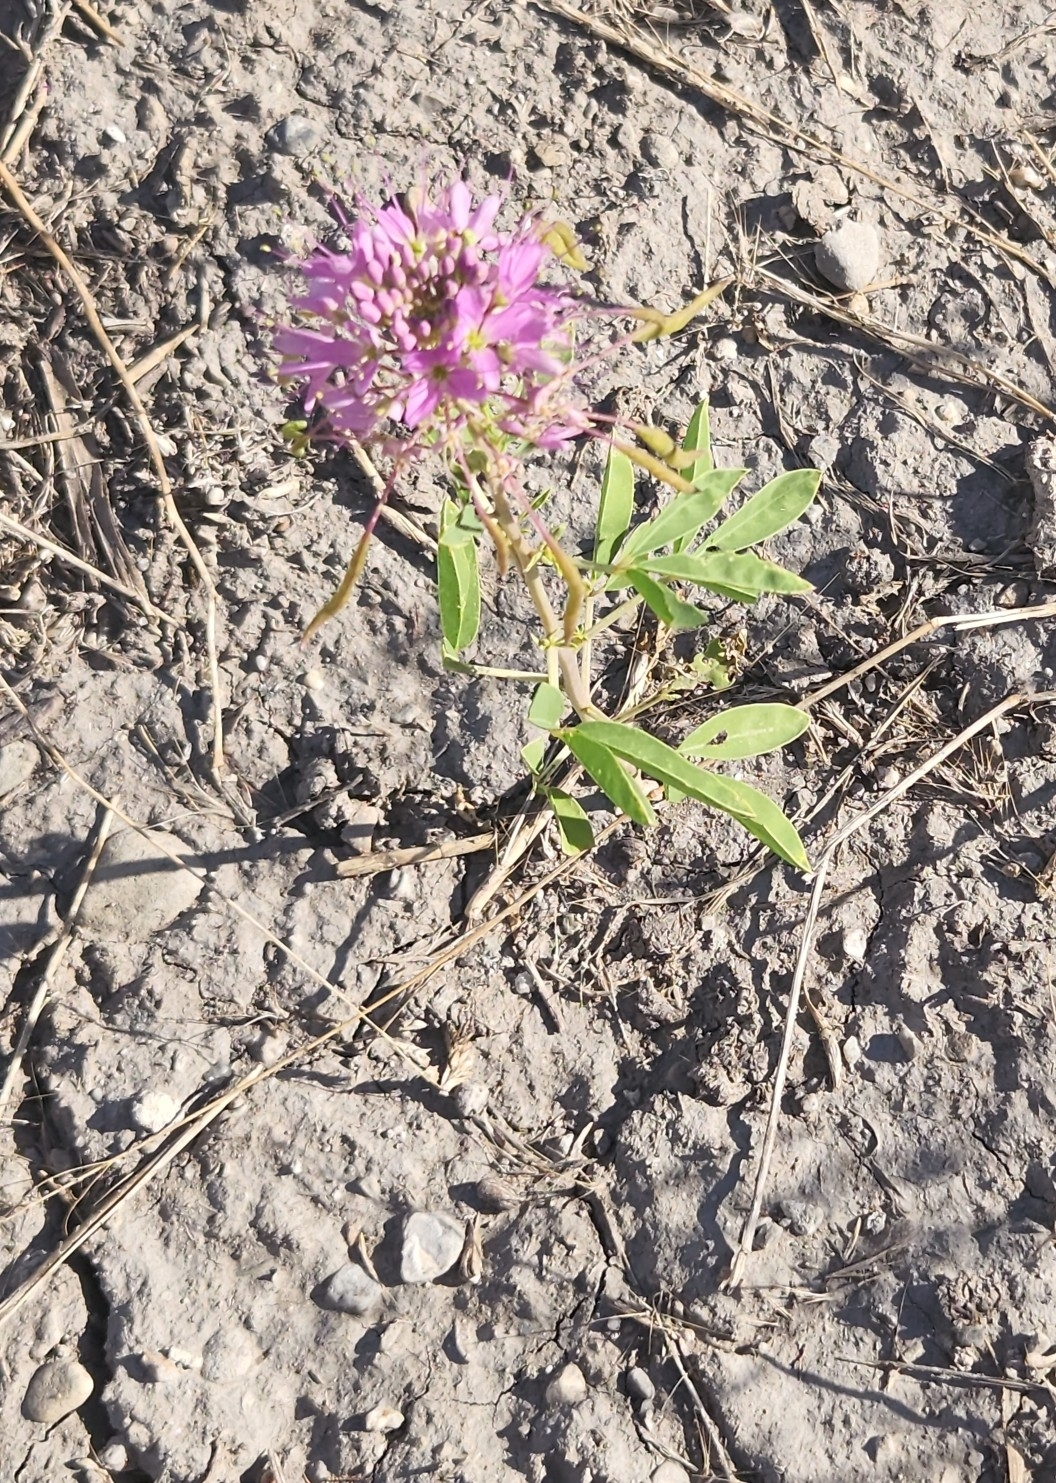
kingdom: Plantae
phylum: Tracheophyta
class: Magnoliopsida
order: Brassicales
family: Cleomaceae
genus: Cleomella
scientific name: Cleomella serrulata
